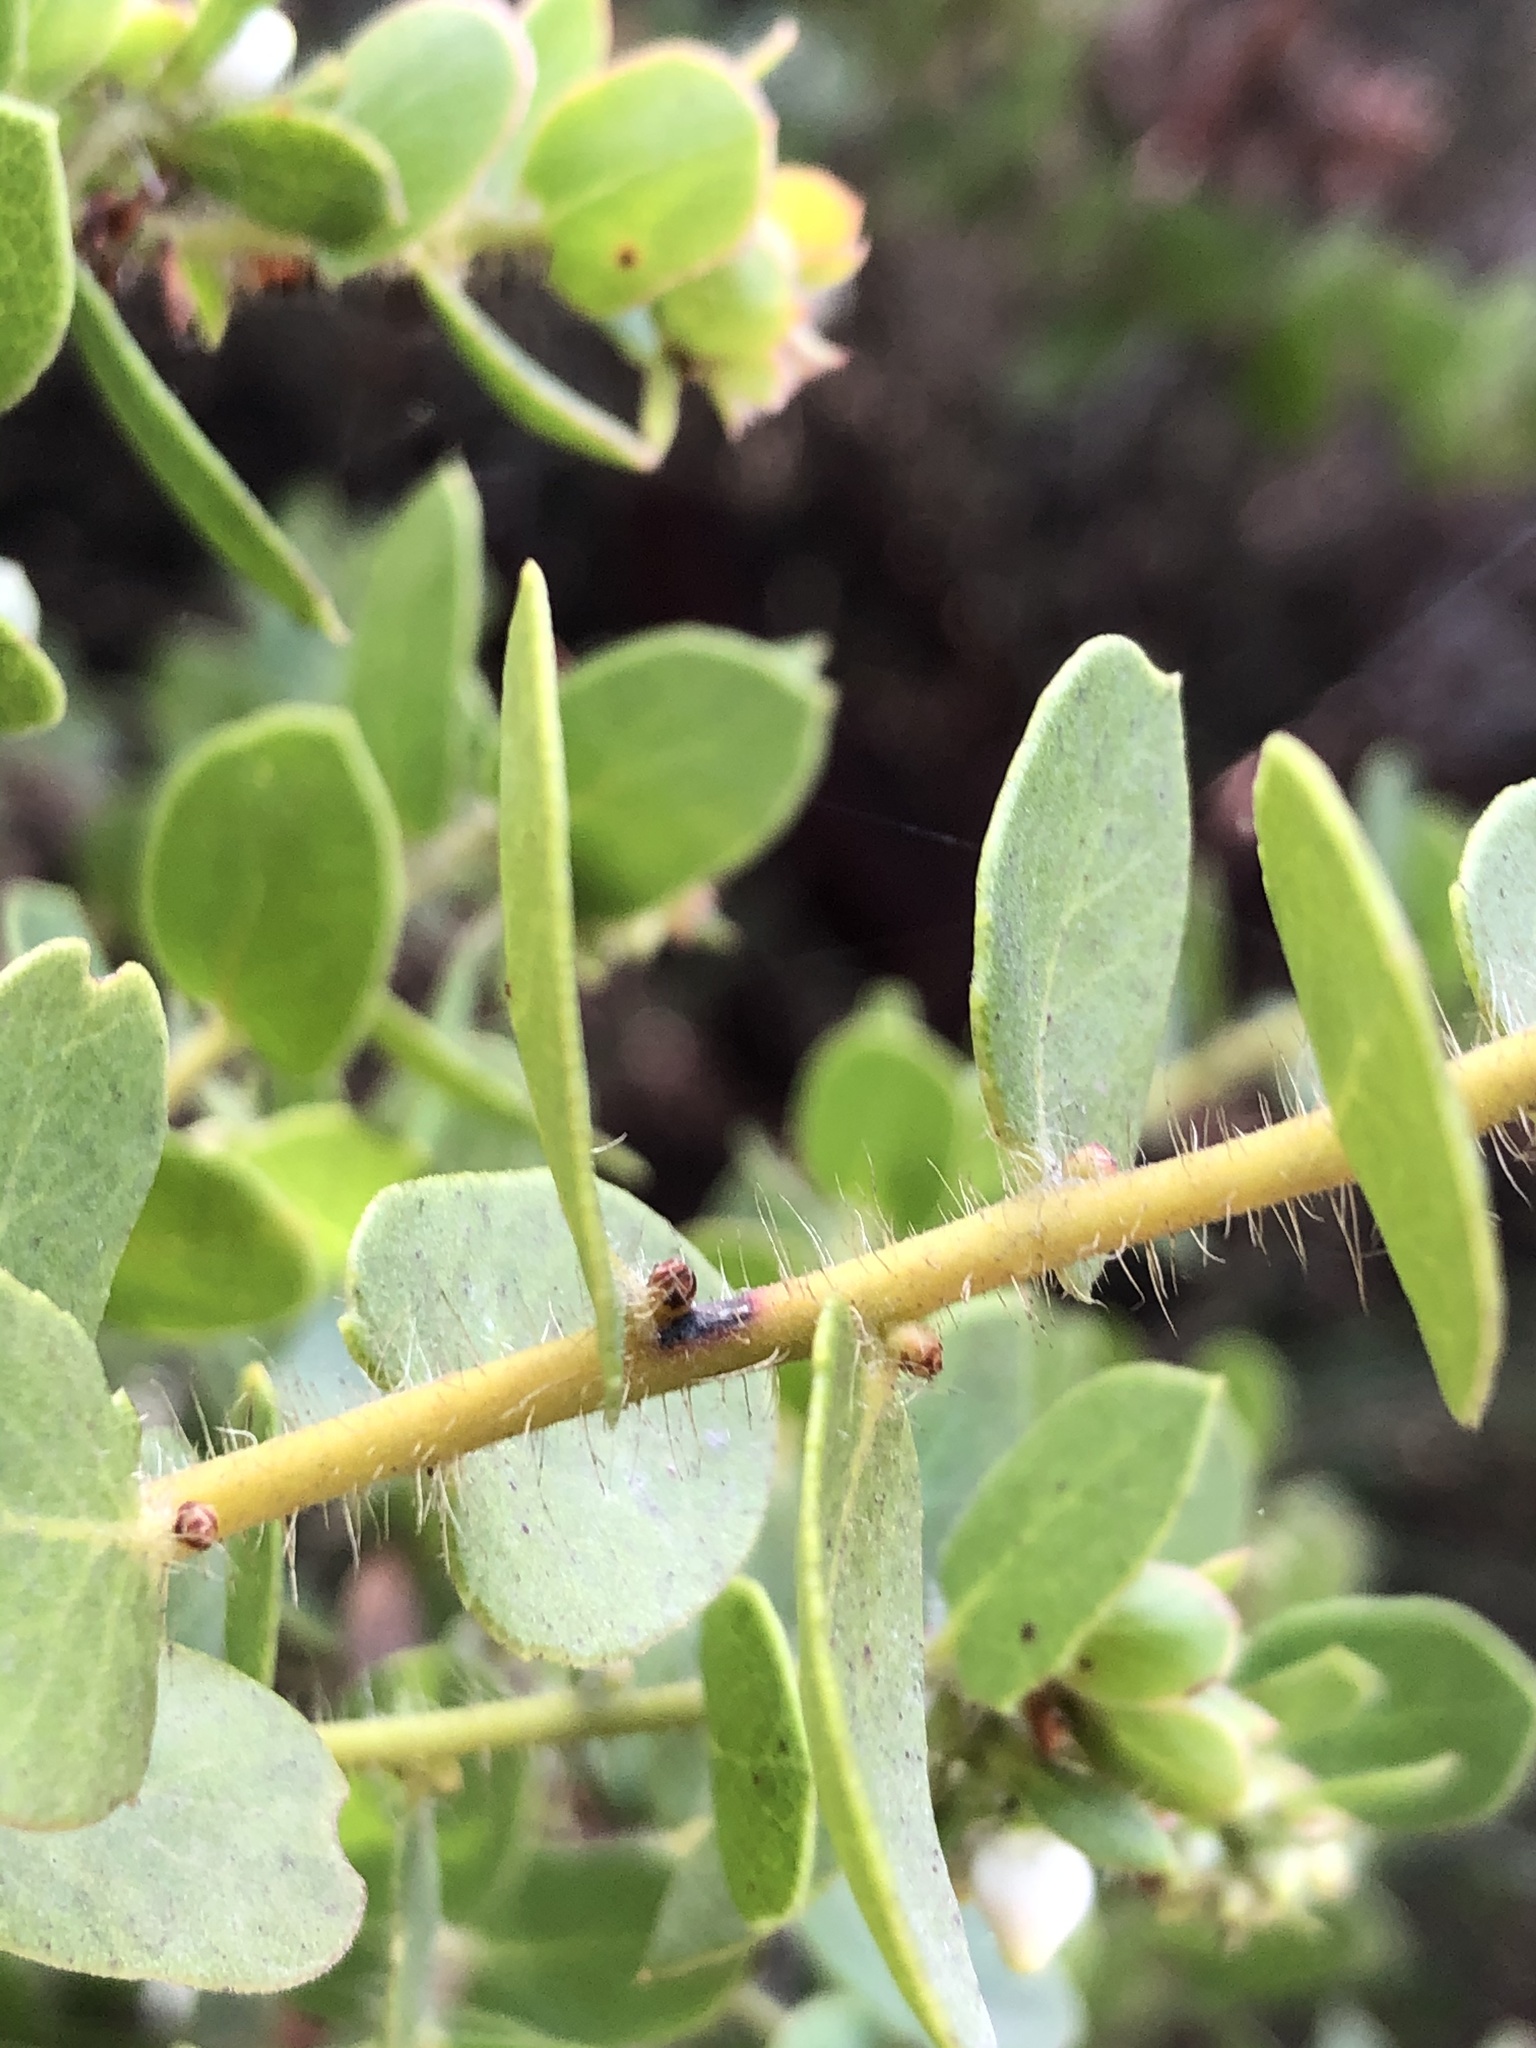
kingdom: Plantae
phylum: Tracheophyta
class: Magnoliopsida
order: Ericales
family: Ericaceae
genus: Arctostaphylos
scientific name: Arctostaphylos purissima
